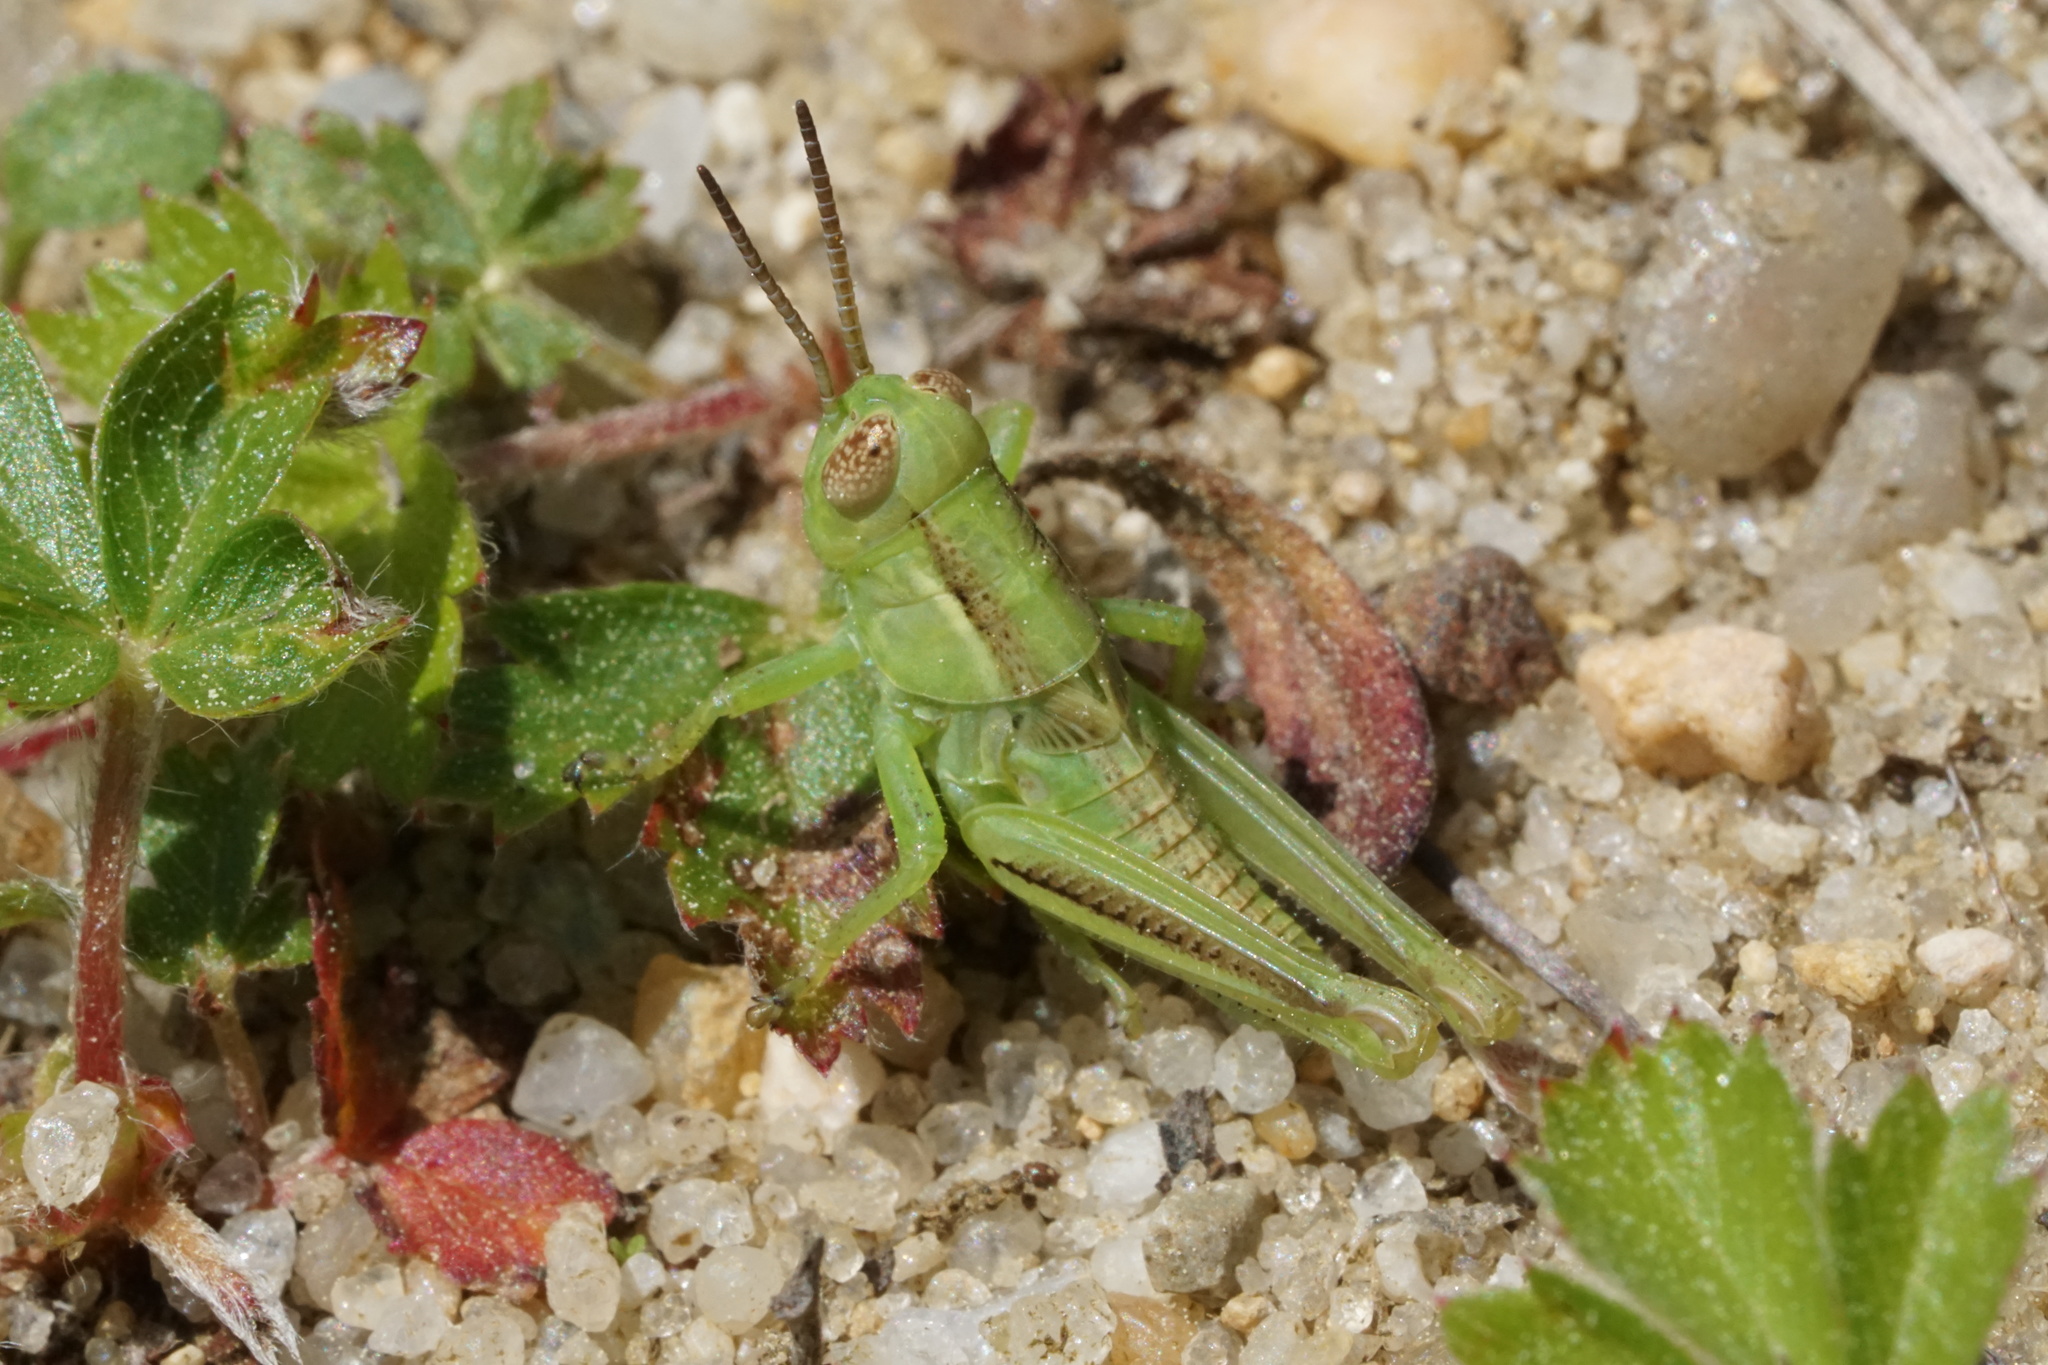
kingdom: Animalia
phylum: Arthropoda
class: Insecta
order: Orthoptera
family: Acrididae
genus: Melanoplus
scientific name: Melanoplus bivittatus
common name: Two-striped grasshopper
